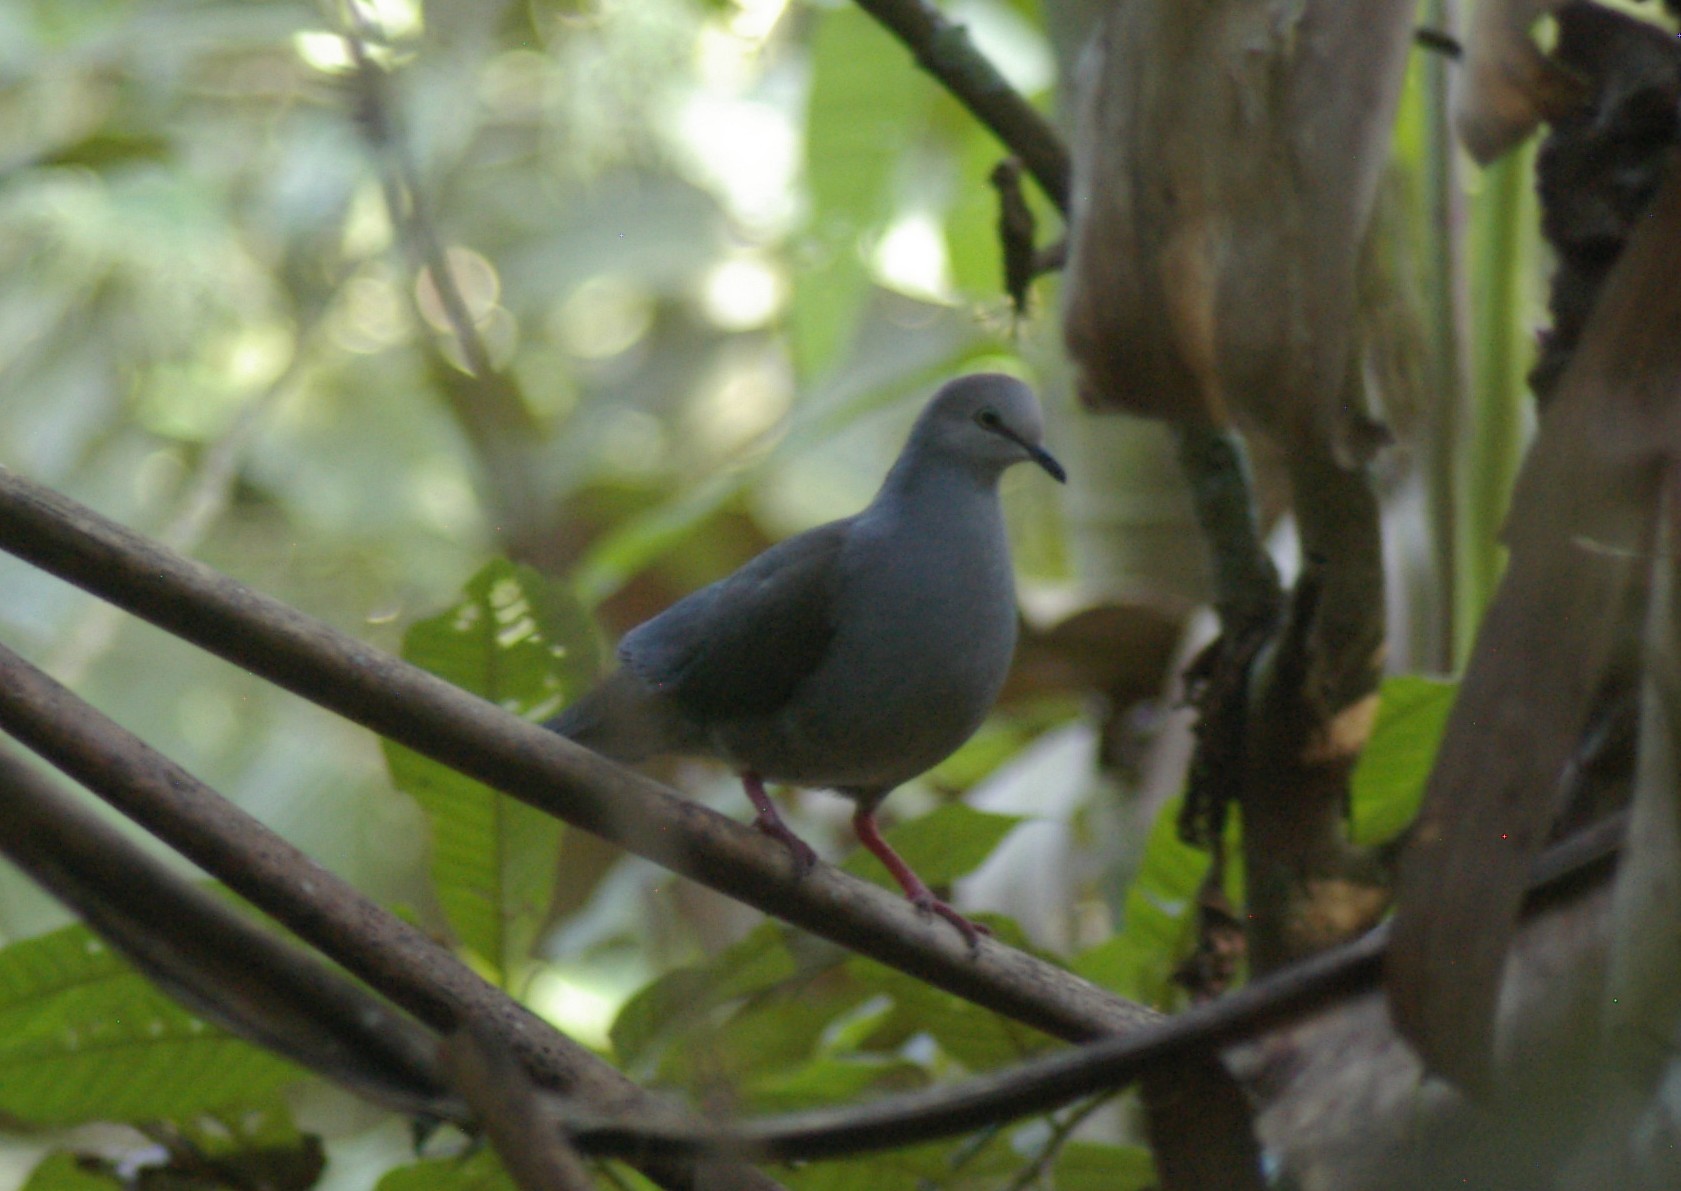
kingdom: Animalia
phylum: Chordata
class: Aves
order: Columbiformes
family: Columbidae
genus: Leptotila
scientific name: Leptotila verreauxi
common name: White-tipped dove
